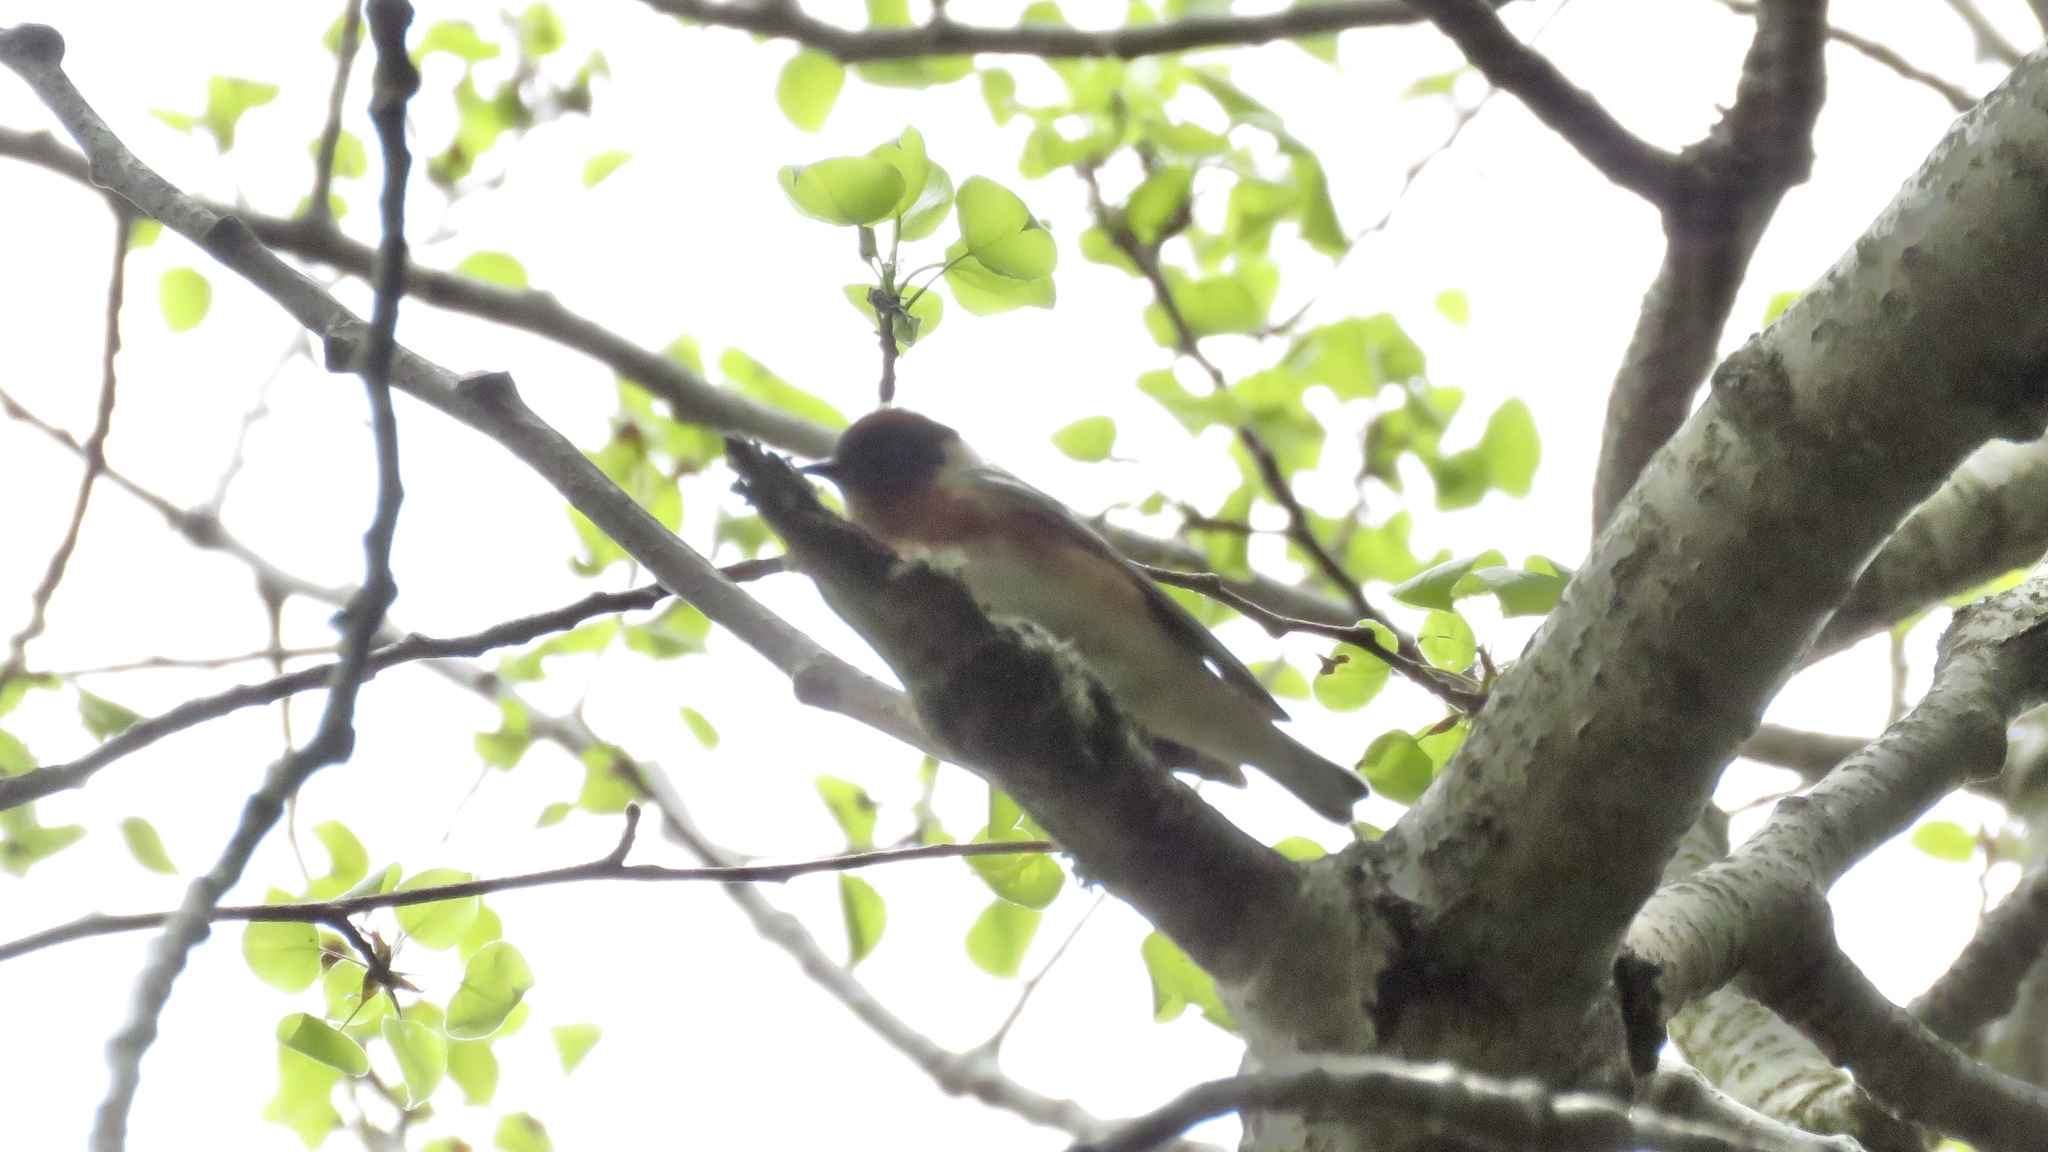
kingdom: Animalia
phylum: Chordata
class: Aves
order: Passeriformes
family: Parulidae
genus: Setophaga
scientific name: Setophaga castanea
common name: Bay-breasted warbler
